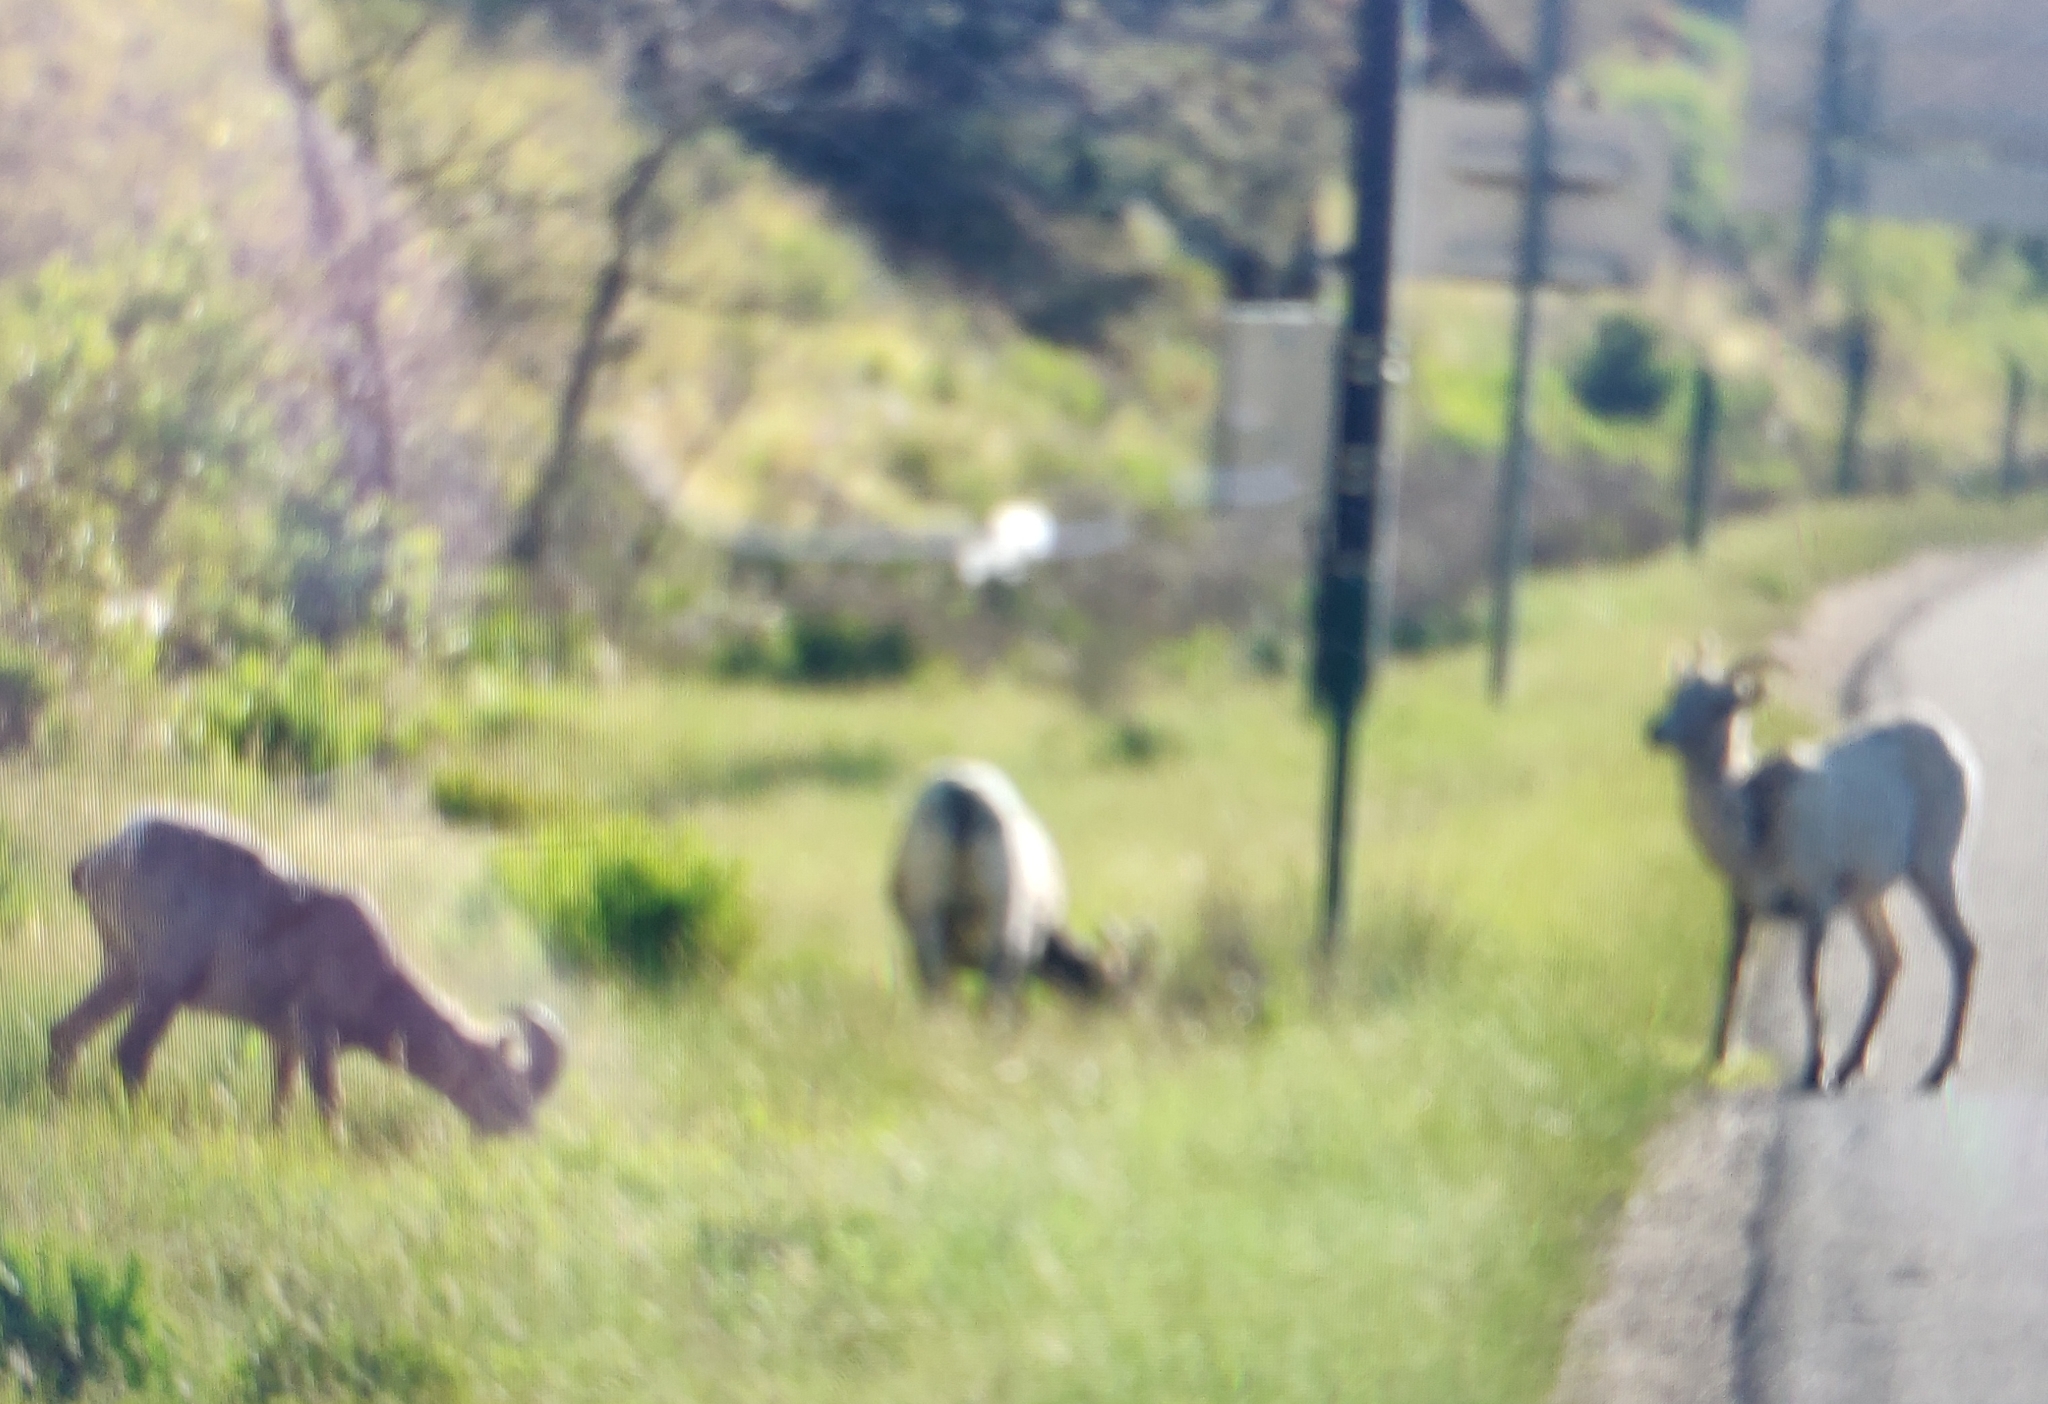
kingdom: Animalia
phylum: Chordata
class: Mammalia
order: Artiodactyla
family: Bovidae
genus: Ovis
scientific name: Ovis canadensis
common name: Bighorn sheep
